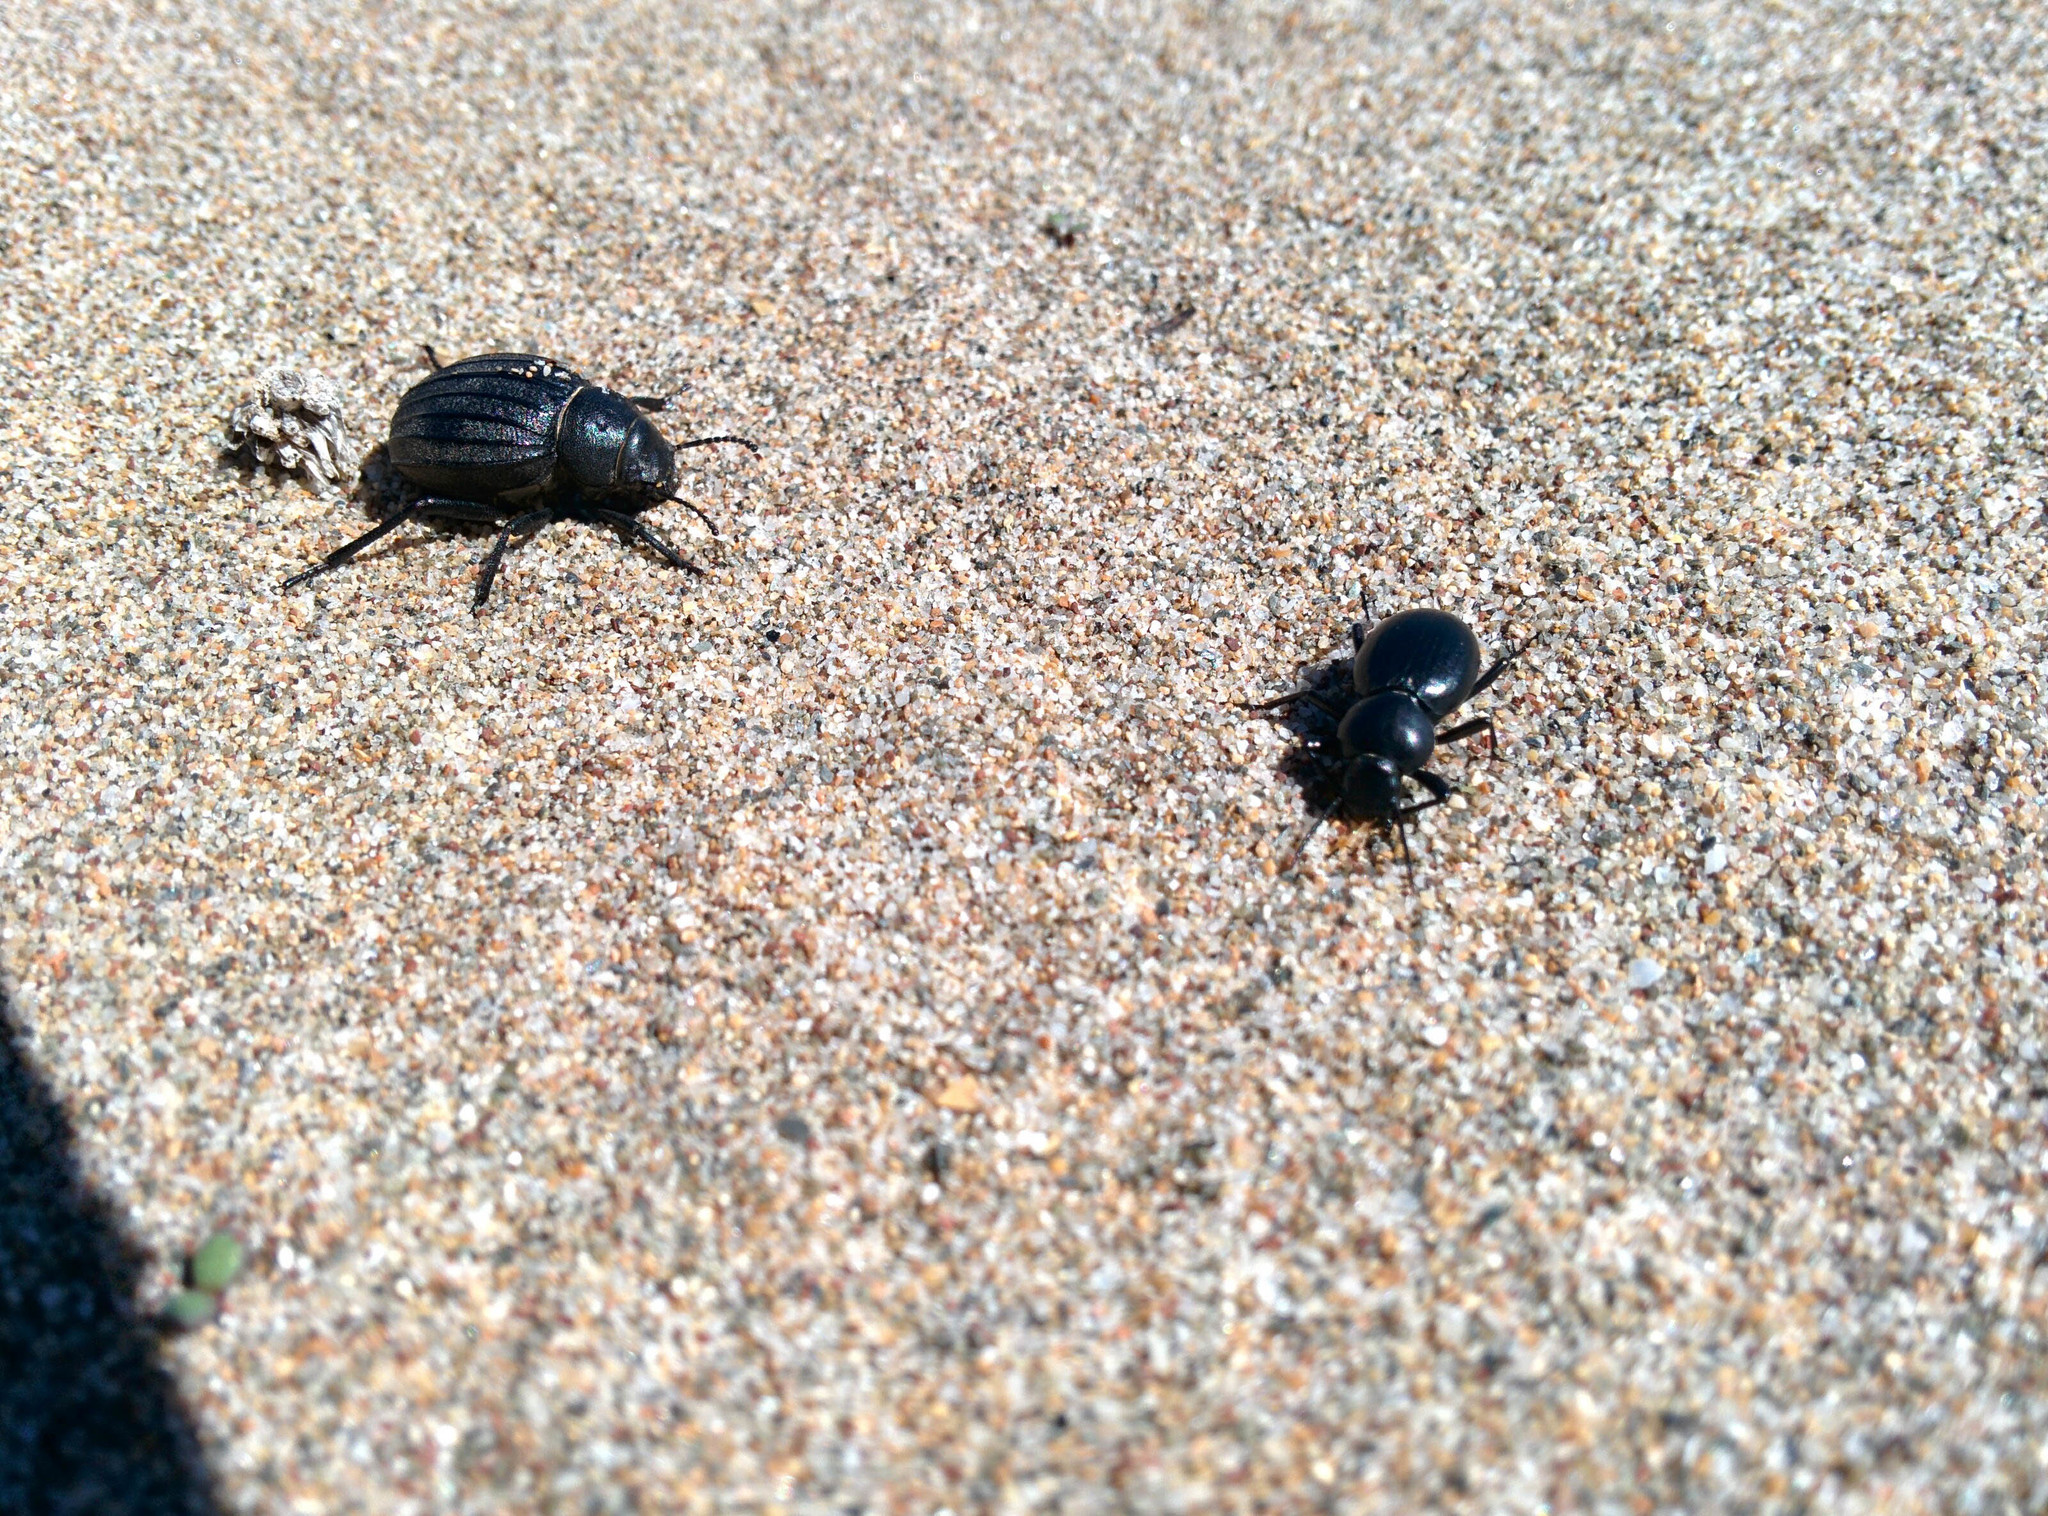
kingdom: Animalia
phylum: Arthropoda
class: Insecta
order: Coleoptera
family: Tenebrionidae
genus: Pimelia
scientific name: Pimelia muricata
